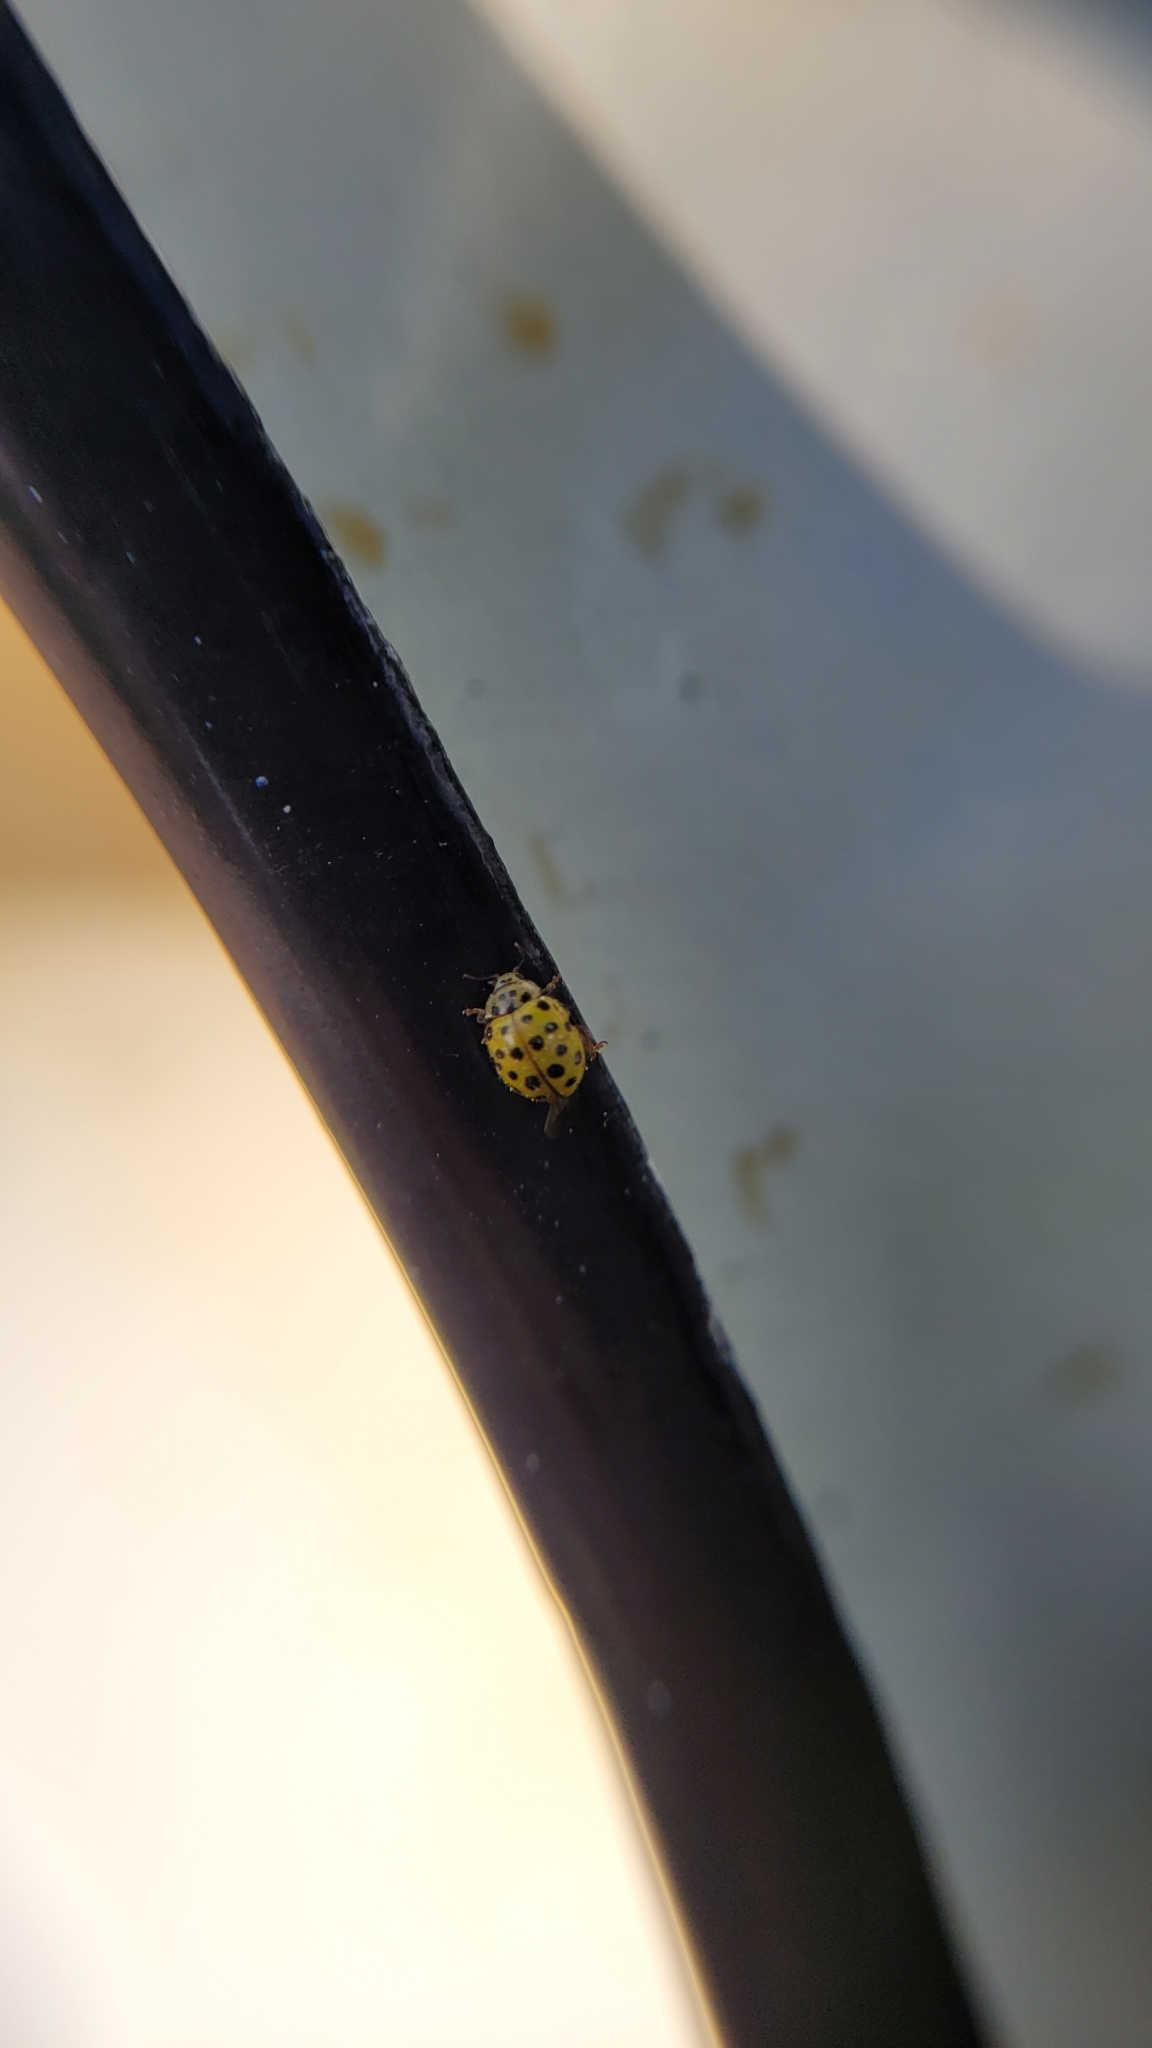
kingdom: Animalia
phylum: Arthropoda
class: Insecta
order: Coleoptera
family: Coccinellidae
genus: Psyllobora
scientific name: Psyllobora vigintiduopunctata
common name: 22-spot ladybird
